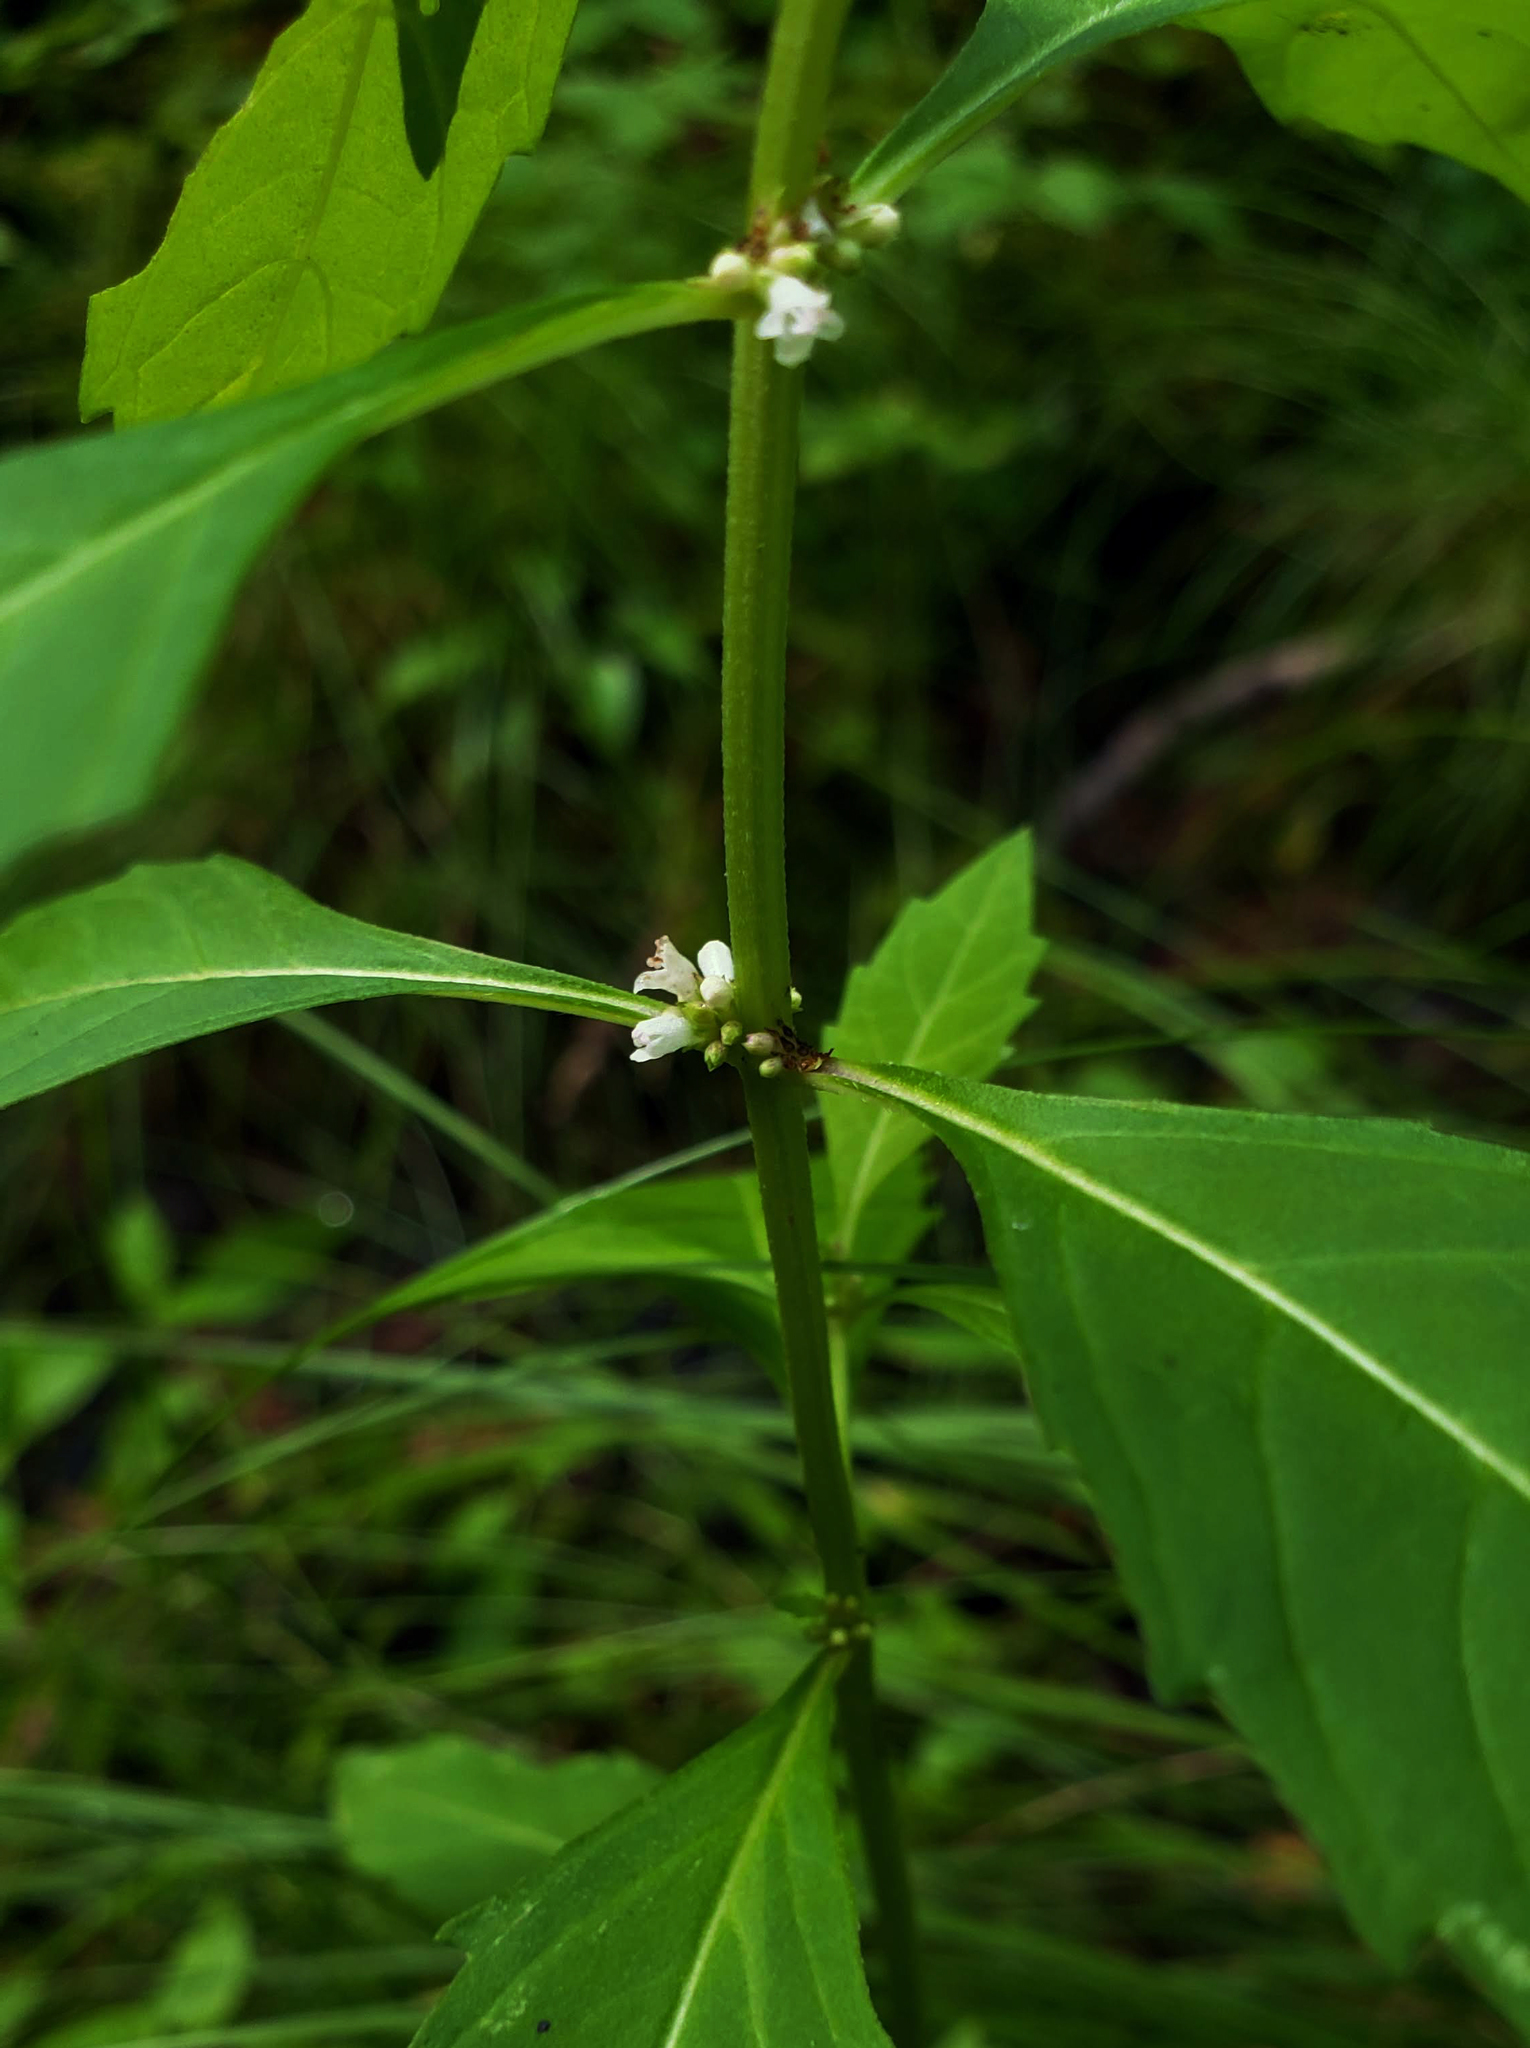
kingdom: Plantae
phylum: Tracheophyta
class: Magnoliopsida
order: Lamiales
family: Lamiaceae
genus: Lycopus
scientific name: Lycopus uniflorus
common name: Northern bugleweed
